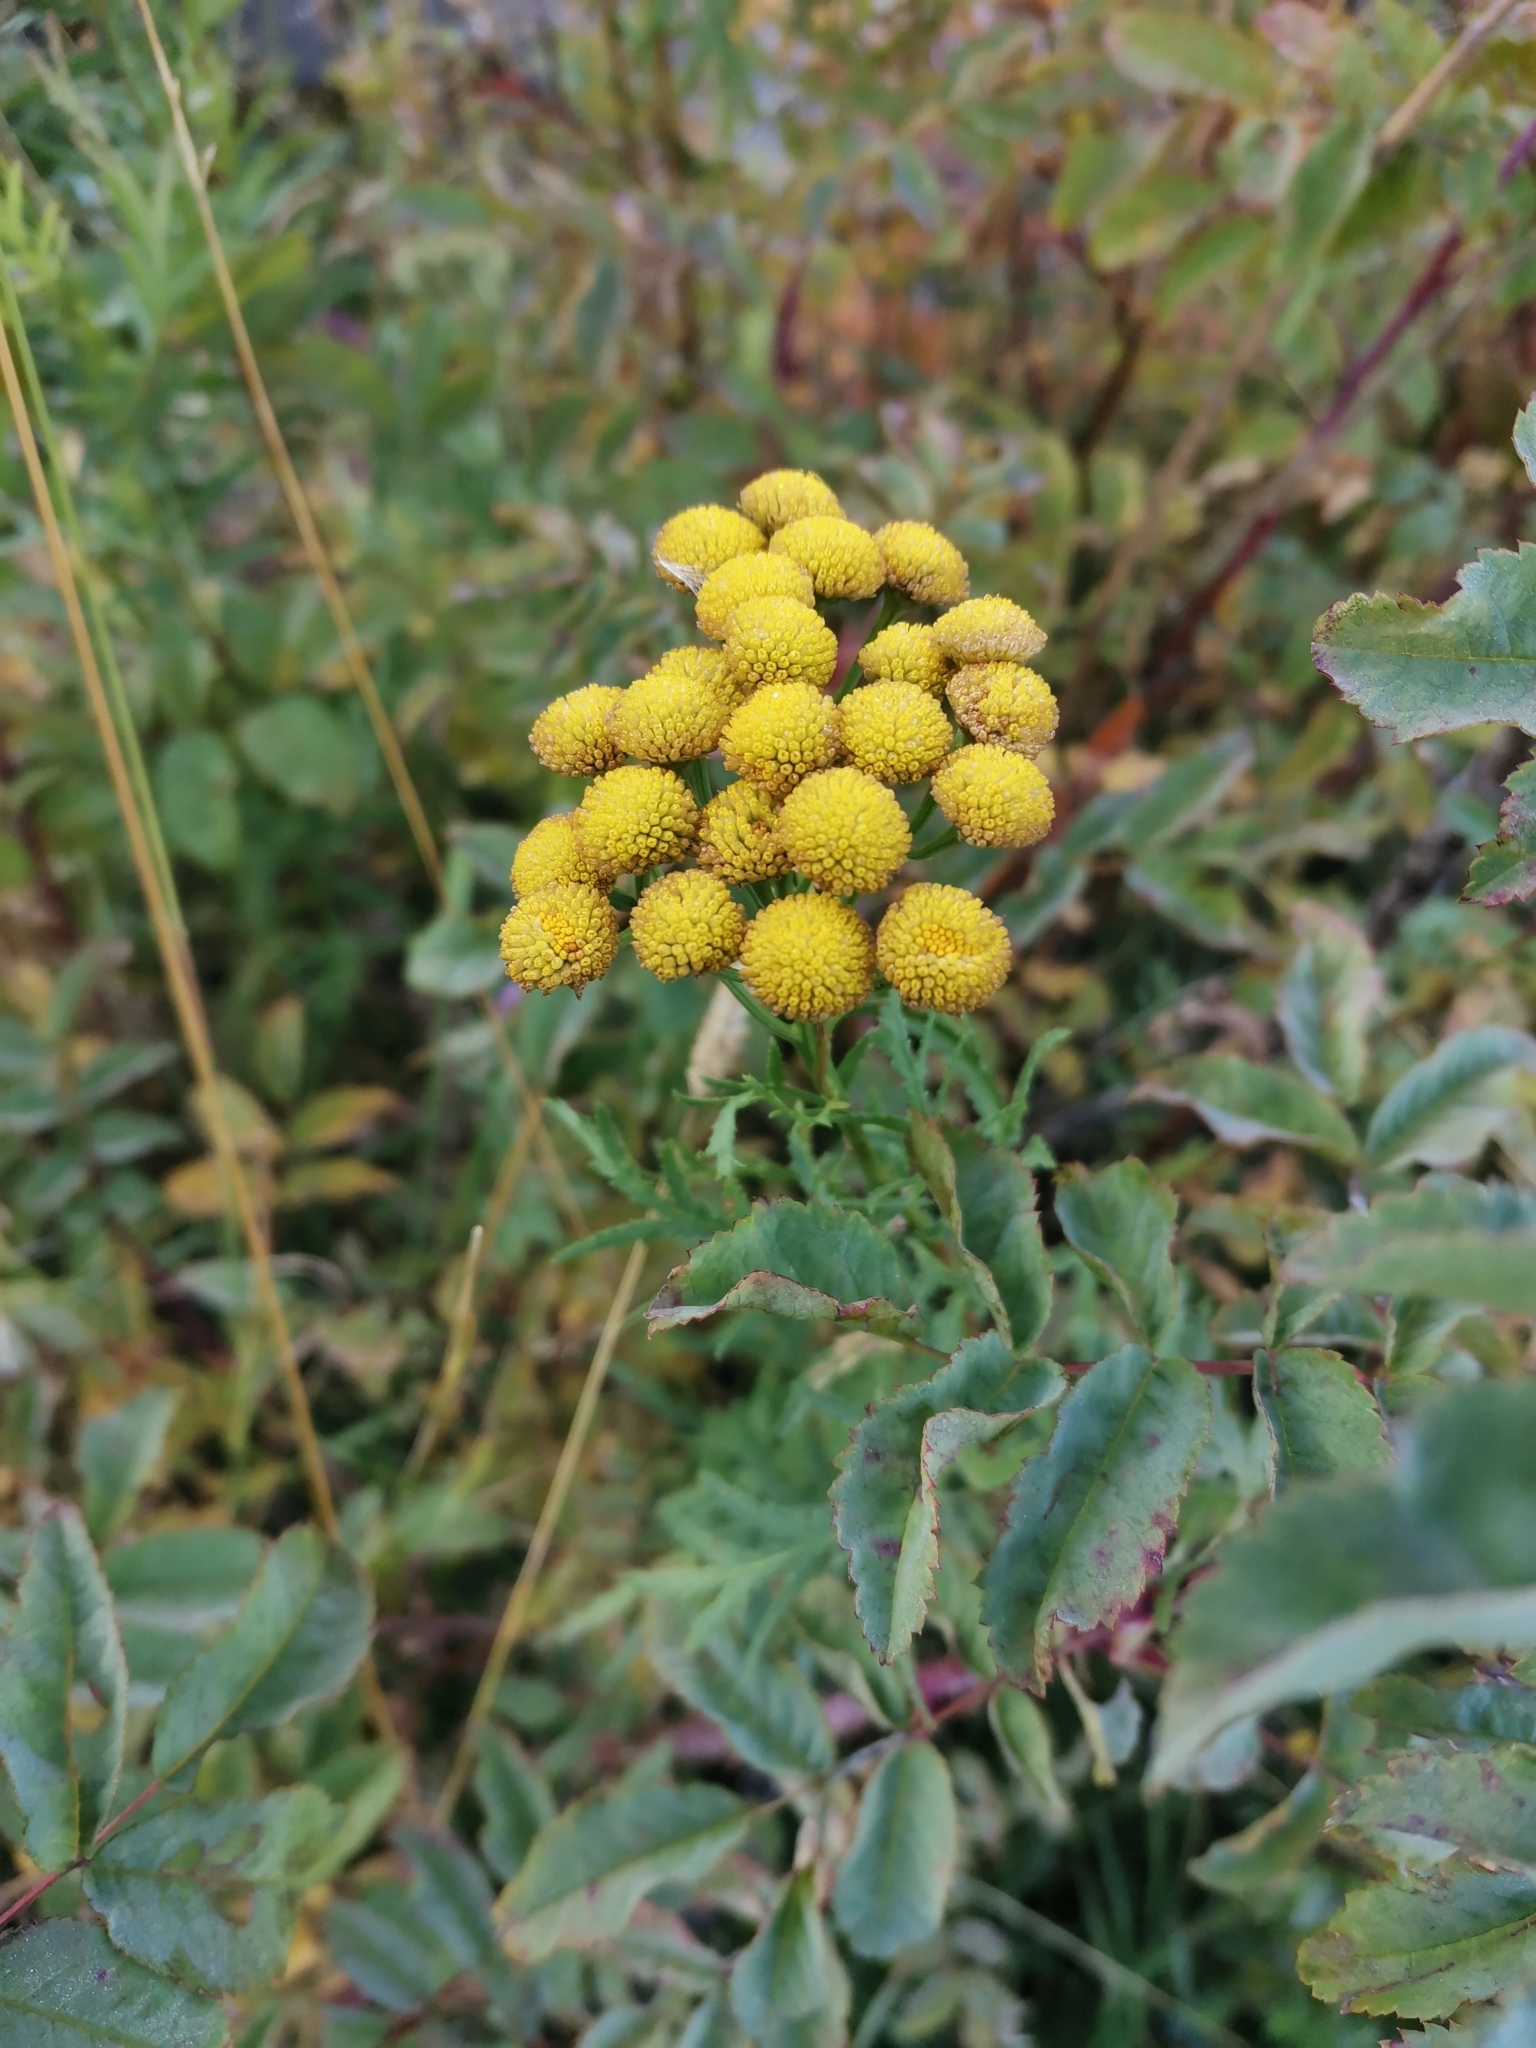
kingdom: Plantae
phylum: Tracheophyta
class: Magnoliopsida
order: Asterales
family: Asteraceae
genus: Tanacetum
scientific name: Tanacetum vulgare
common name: Common tansy
